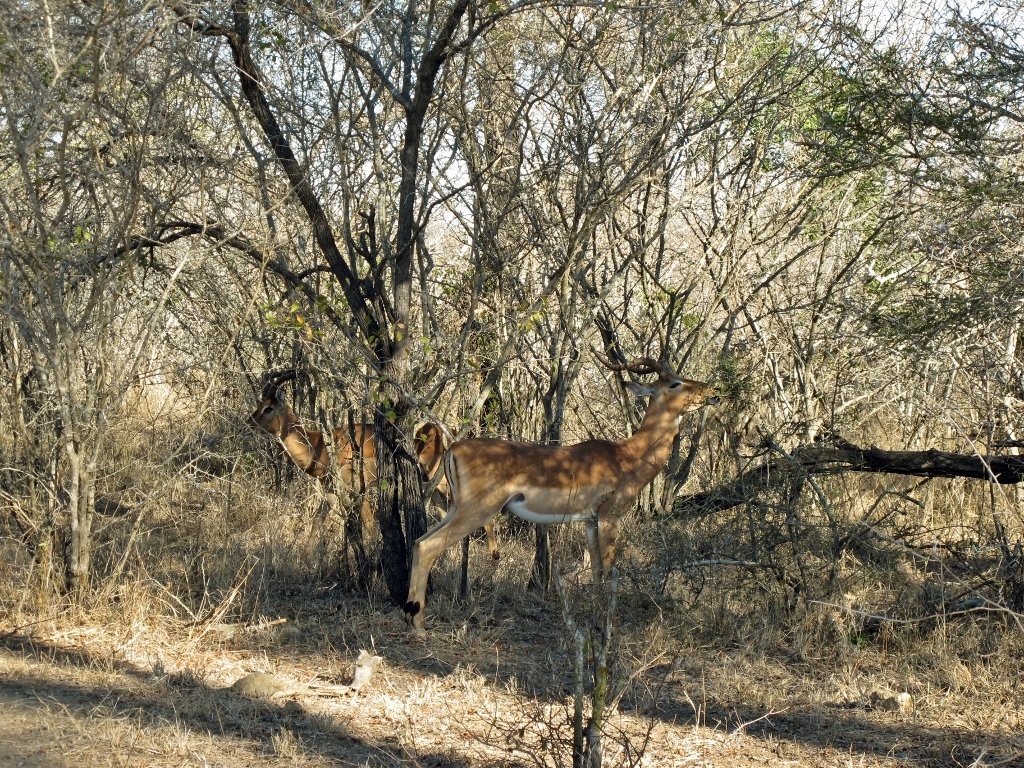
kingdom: Animalia
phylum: Chordata
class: Mammalia
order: Artiodactyla
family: Bovidae
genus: Aepyceros
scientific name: Aepyceros melampus
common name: Impala
